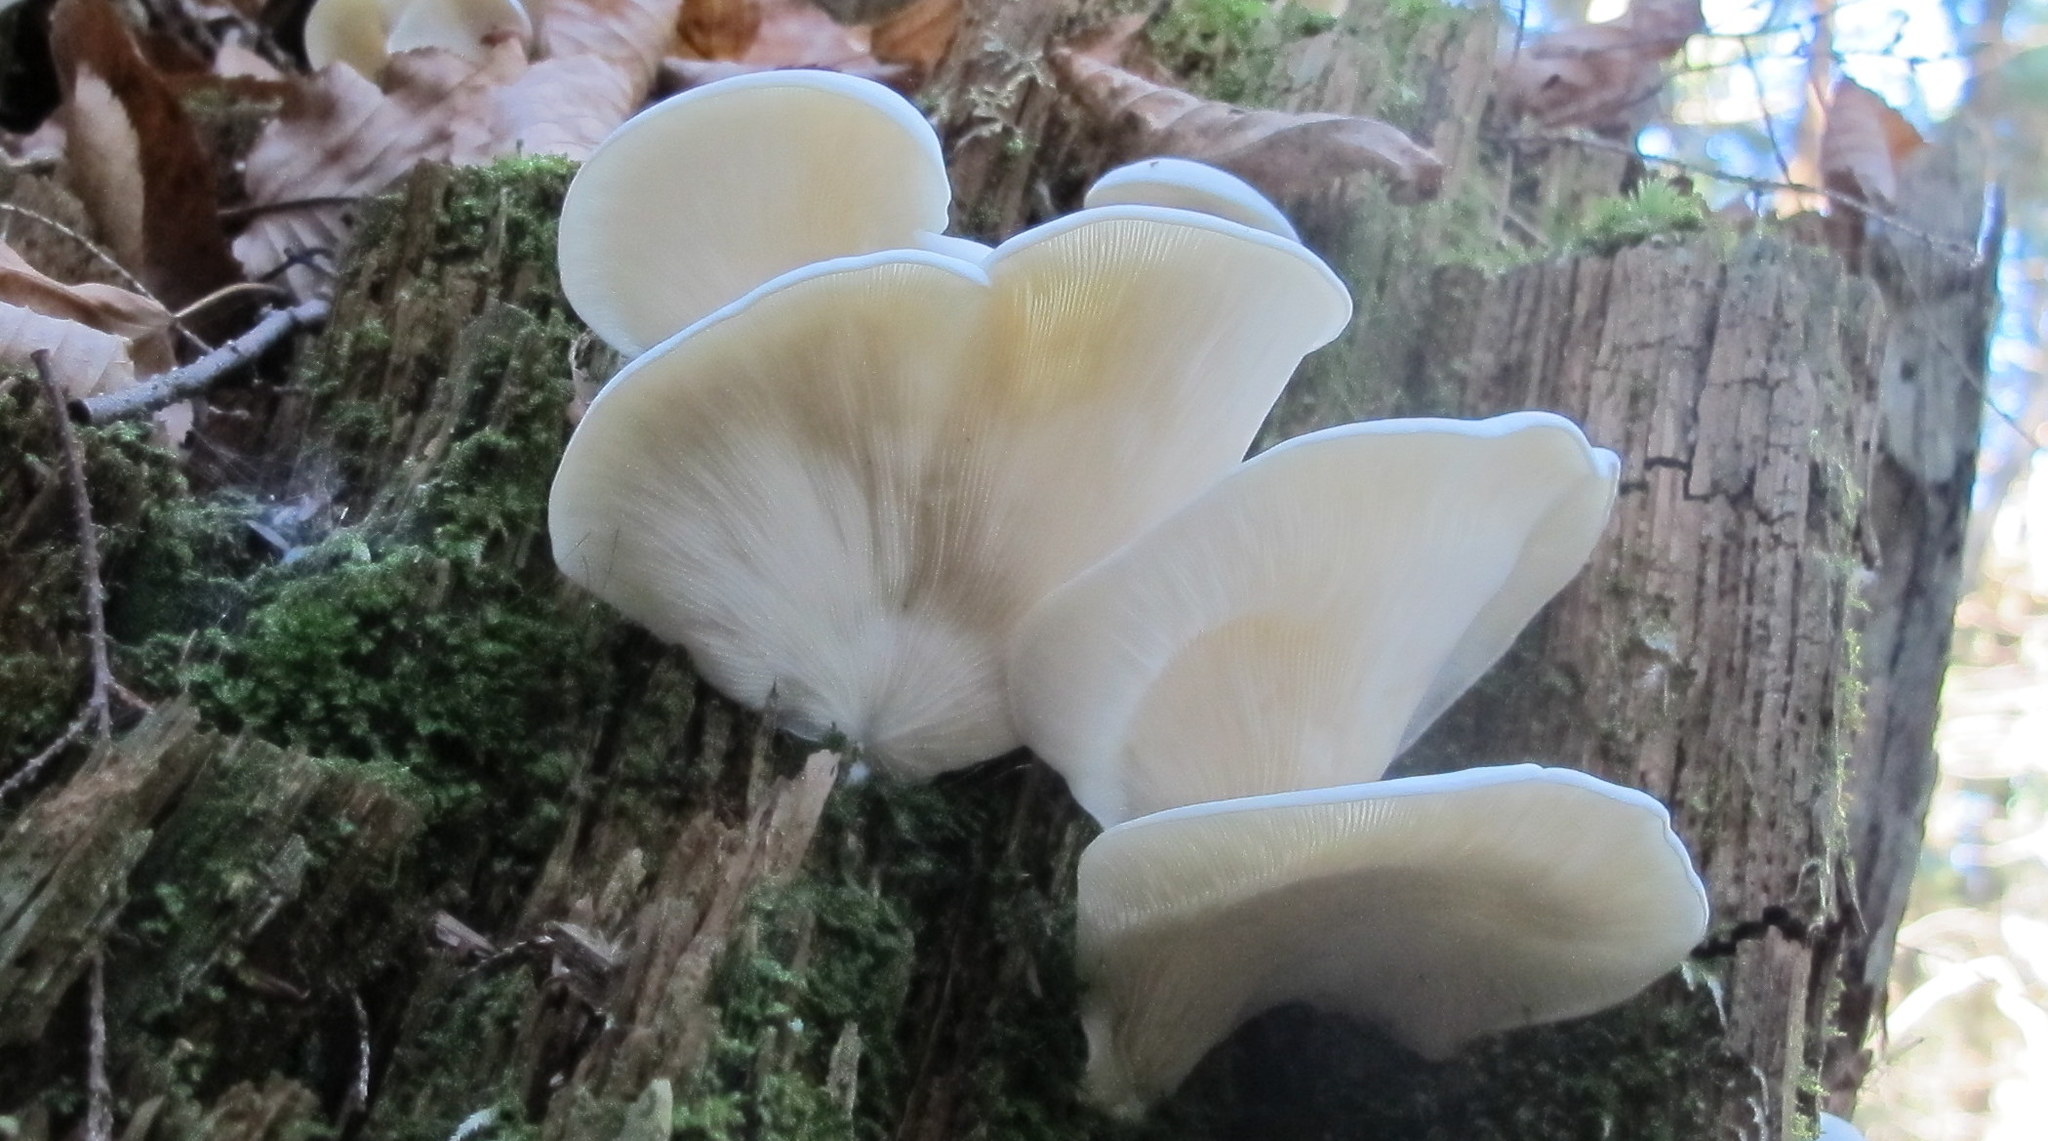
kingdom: Fungi
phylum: Basidiomycota
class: Agaricomycetes
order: Agaricales
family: Marasmiaceae
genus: Pleurocybella
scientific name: Pleurocybella porrigens
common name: Angel's wings
